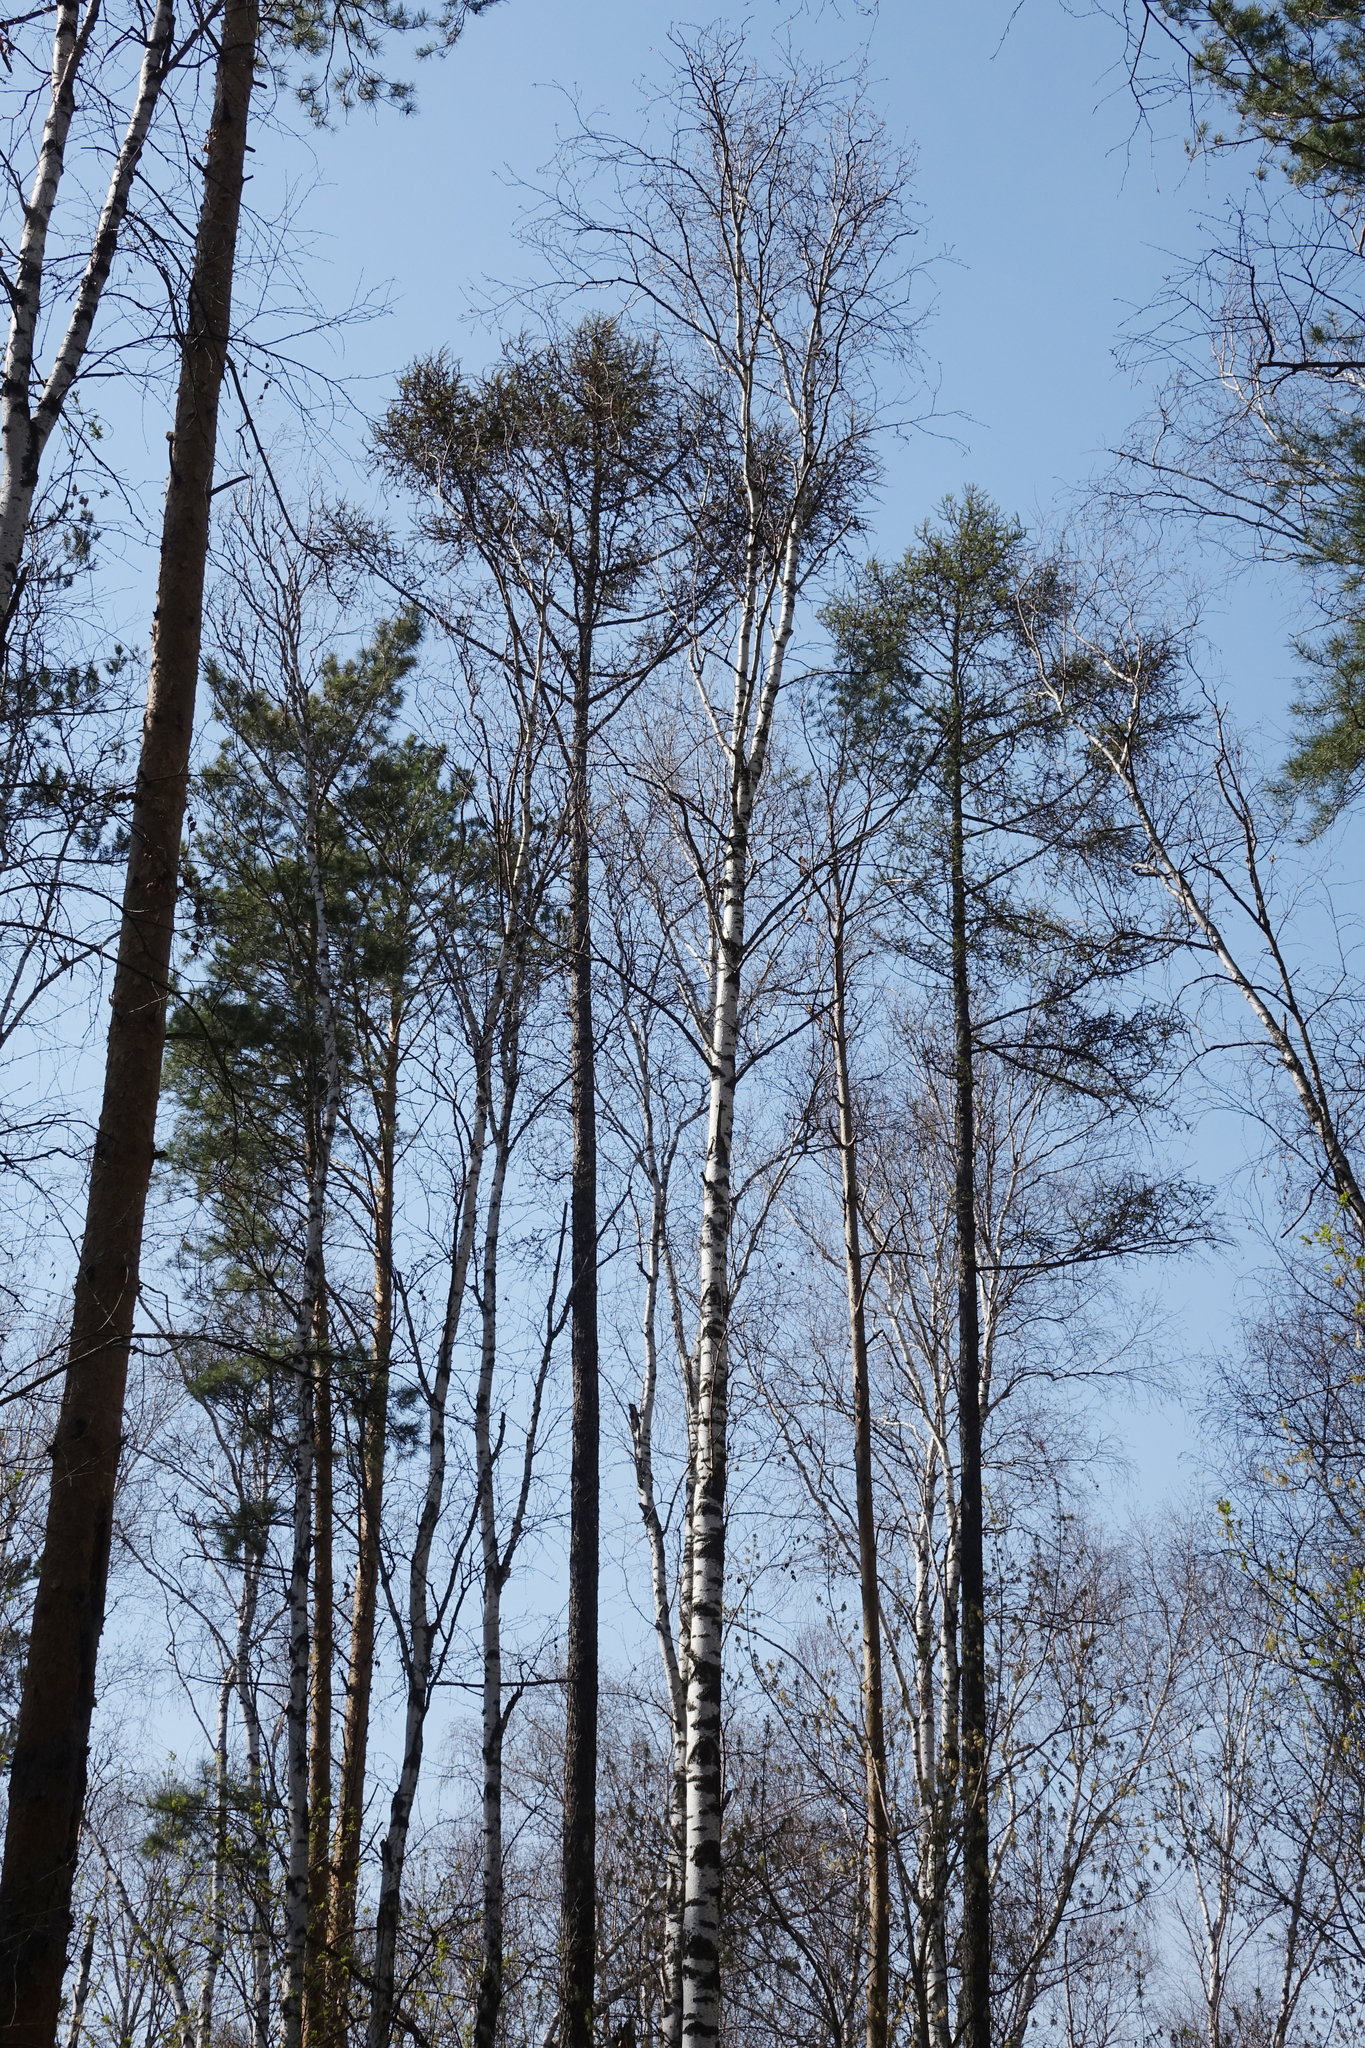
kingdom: Plantae
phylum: Tracheophyta
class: Pinopsida
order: Pinales
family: Pinaceae
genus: Larix
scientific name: Larix sibirica
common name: Siberian larch
